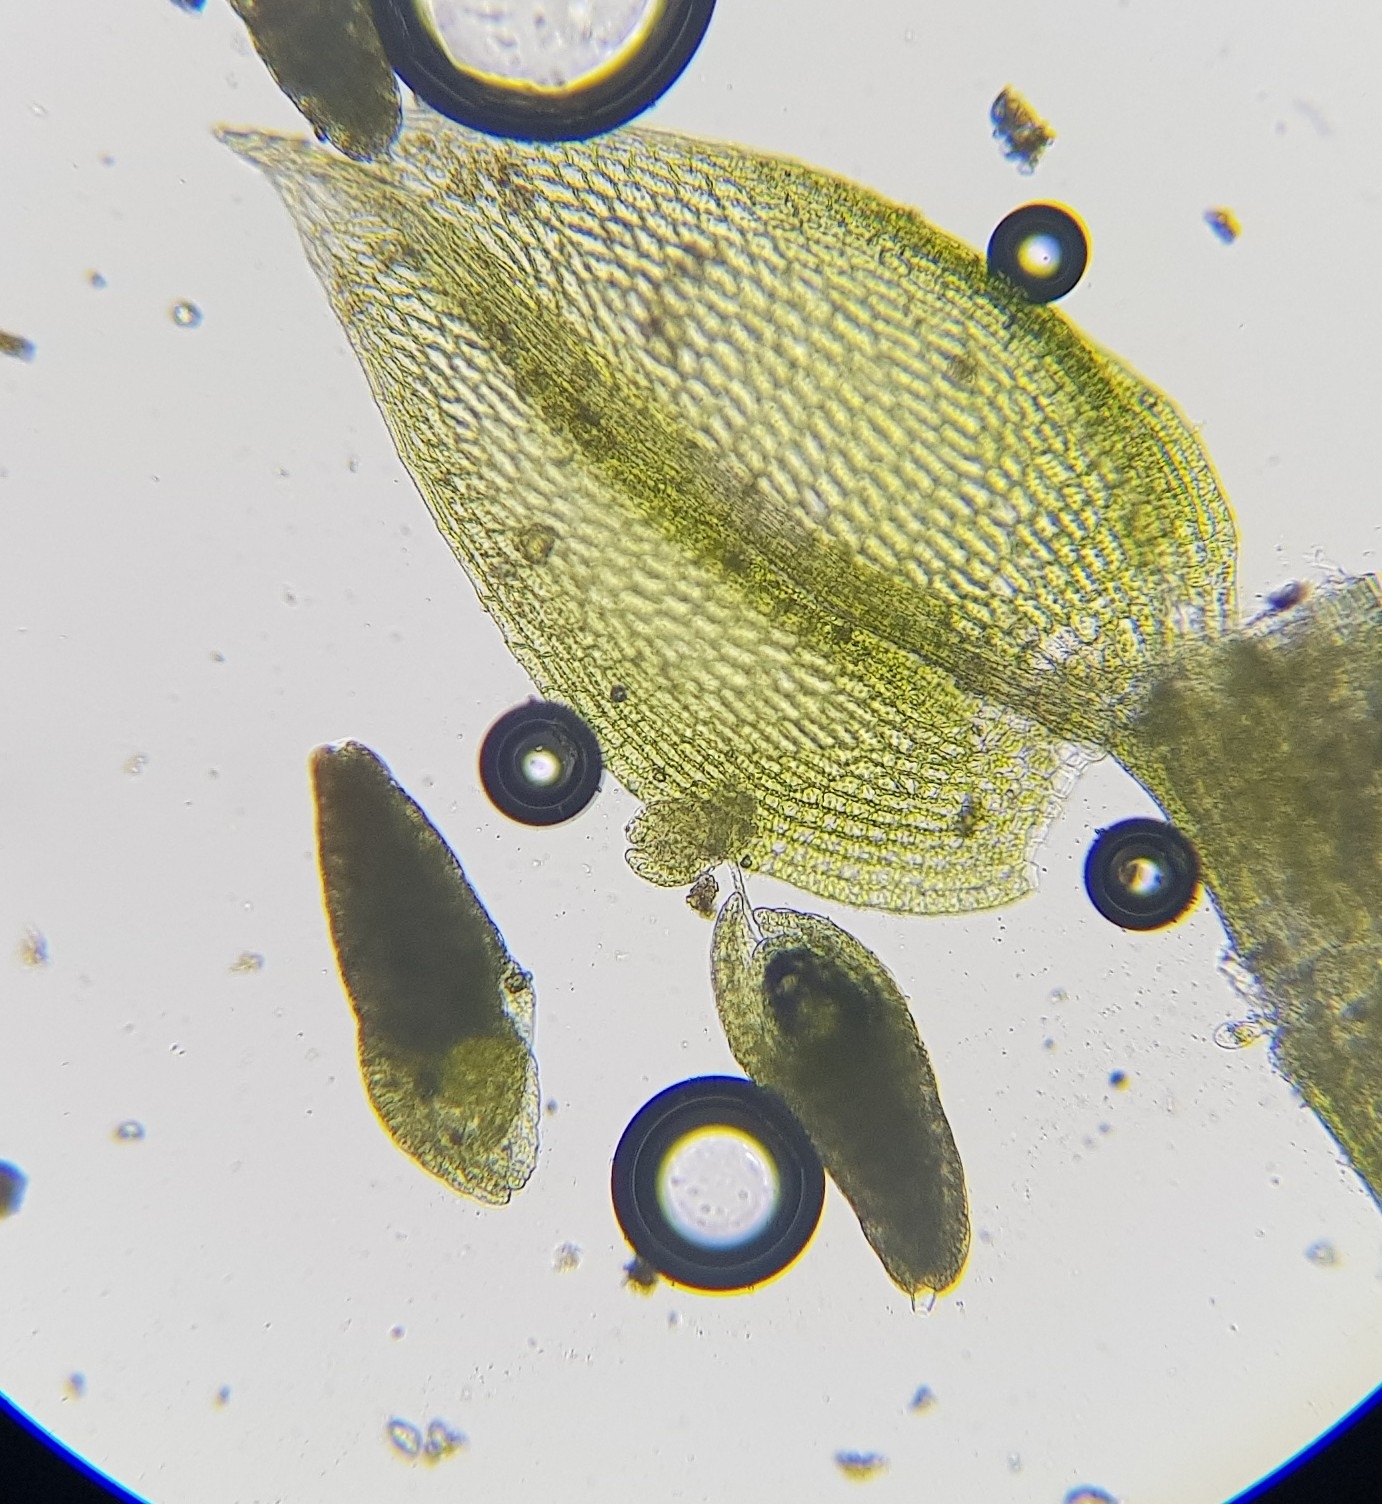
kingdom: Plantae
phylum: Bryophyta
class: Bryopsida
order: Bryales
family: Bryaceae
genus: Gemmabryum
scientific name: Gemmabryum dichotomum
